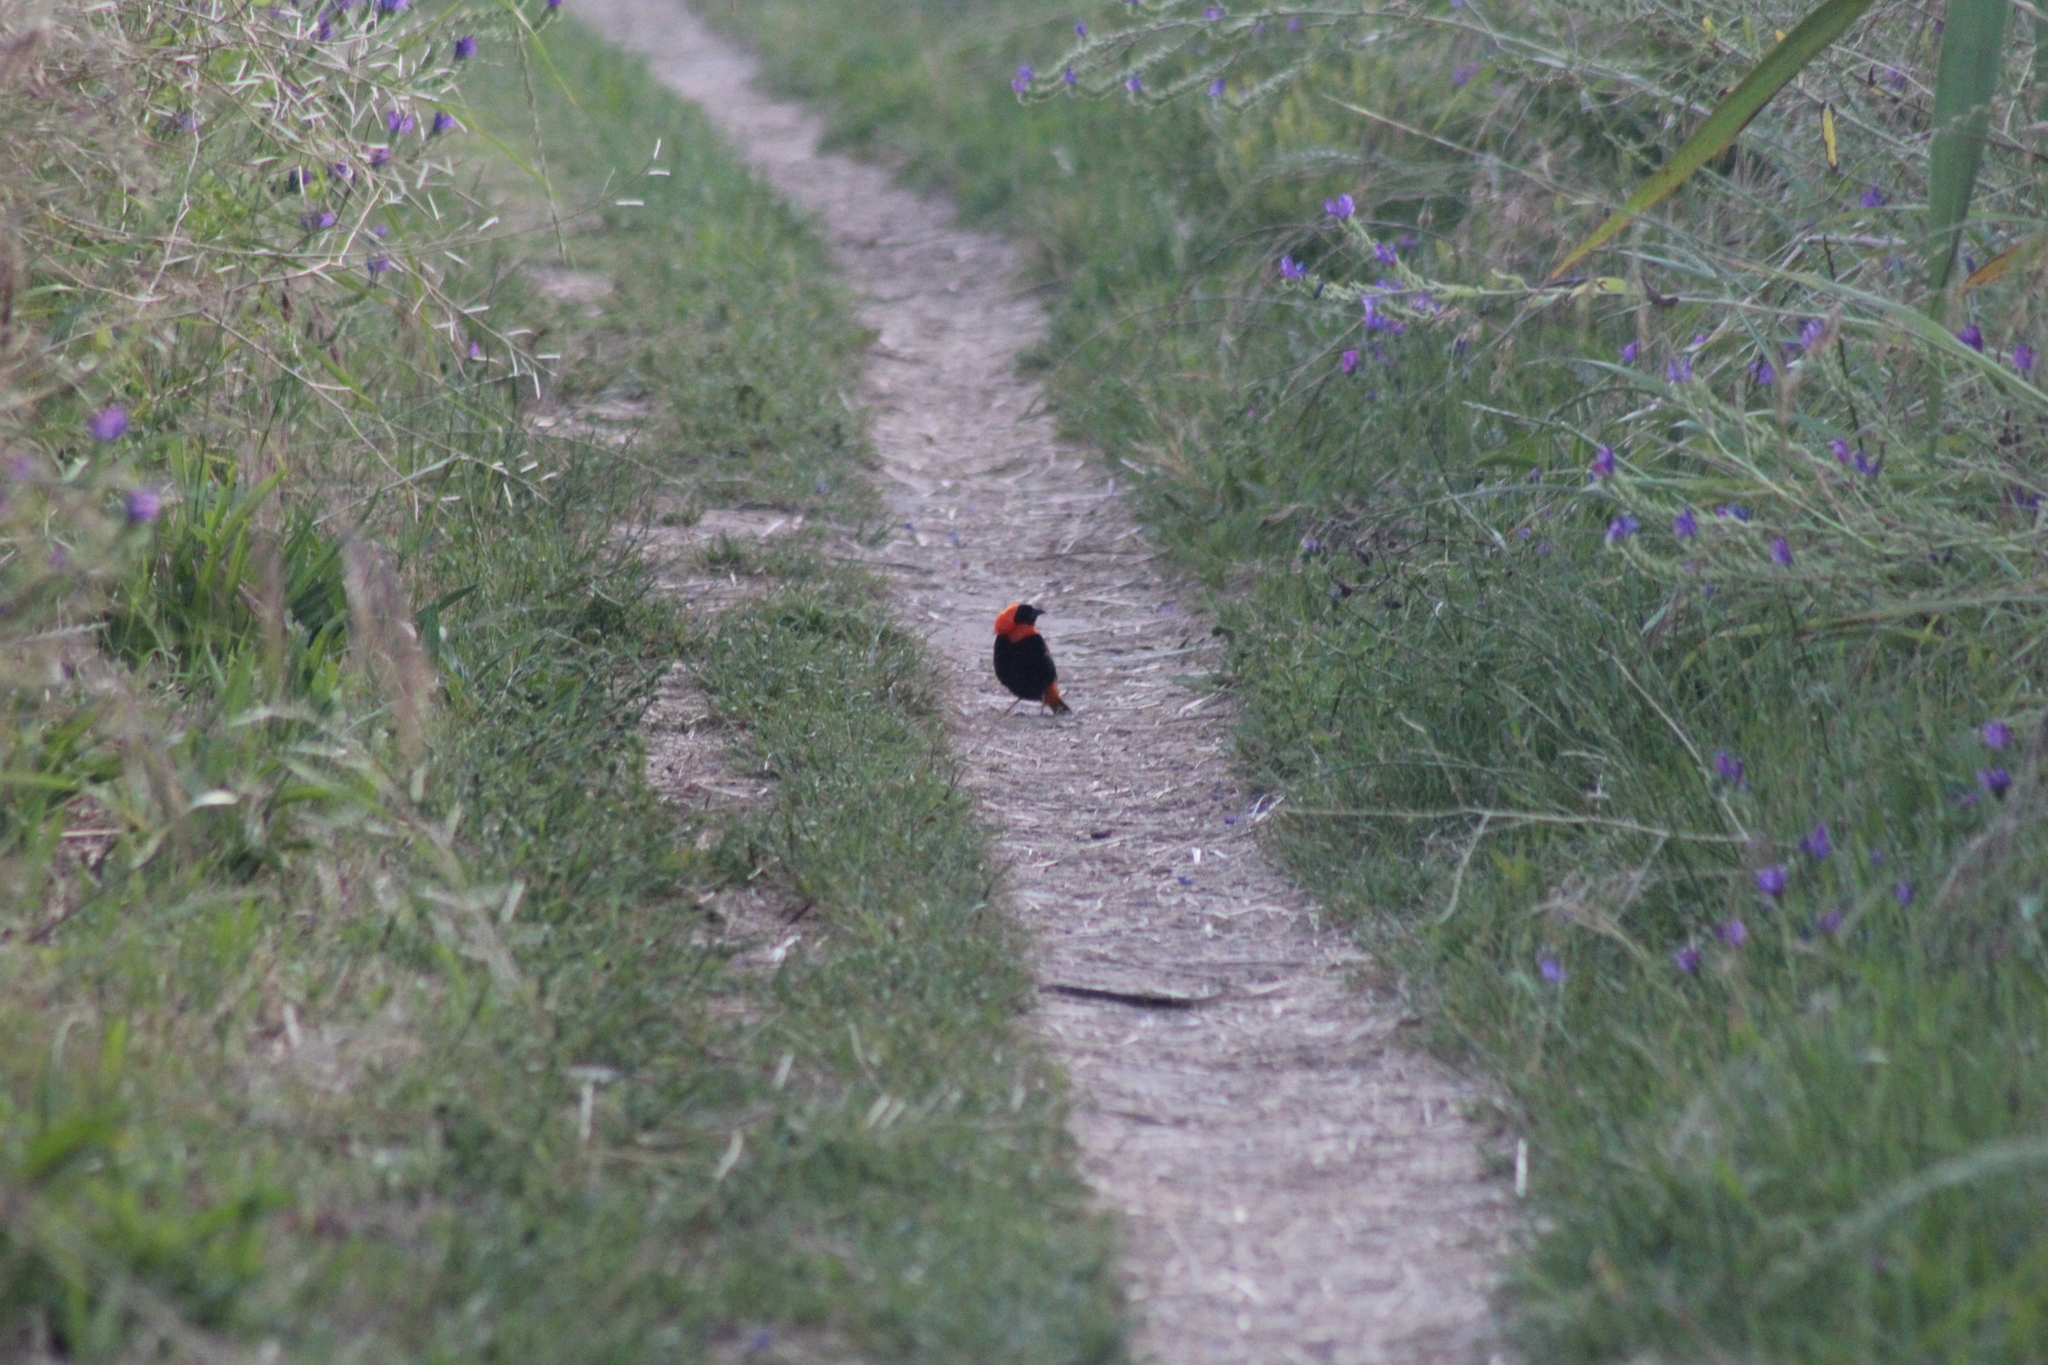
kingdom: Animalia
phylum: Chordata
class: Aves
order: Passeriformes
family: Ploceidae
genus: Euplectes
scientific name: Euplectes orix
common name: Southern red bishop
